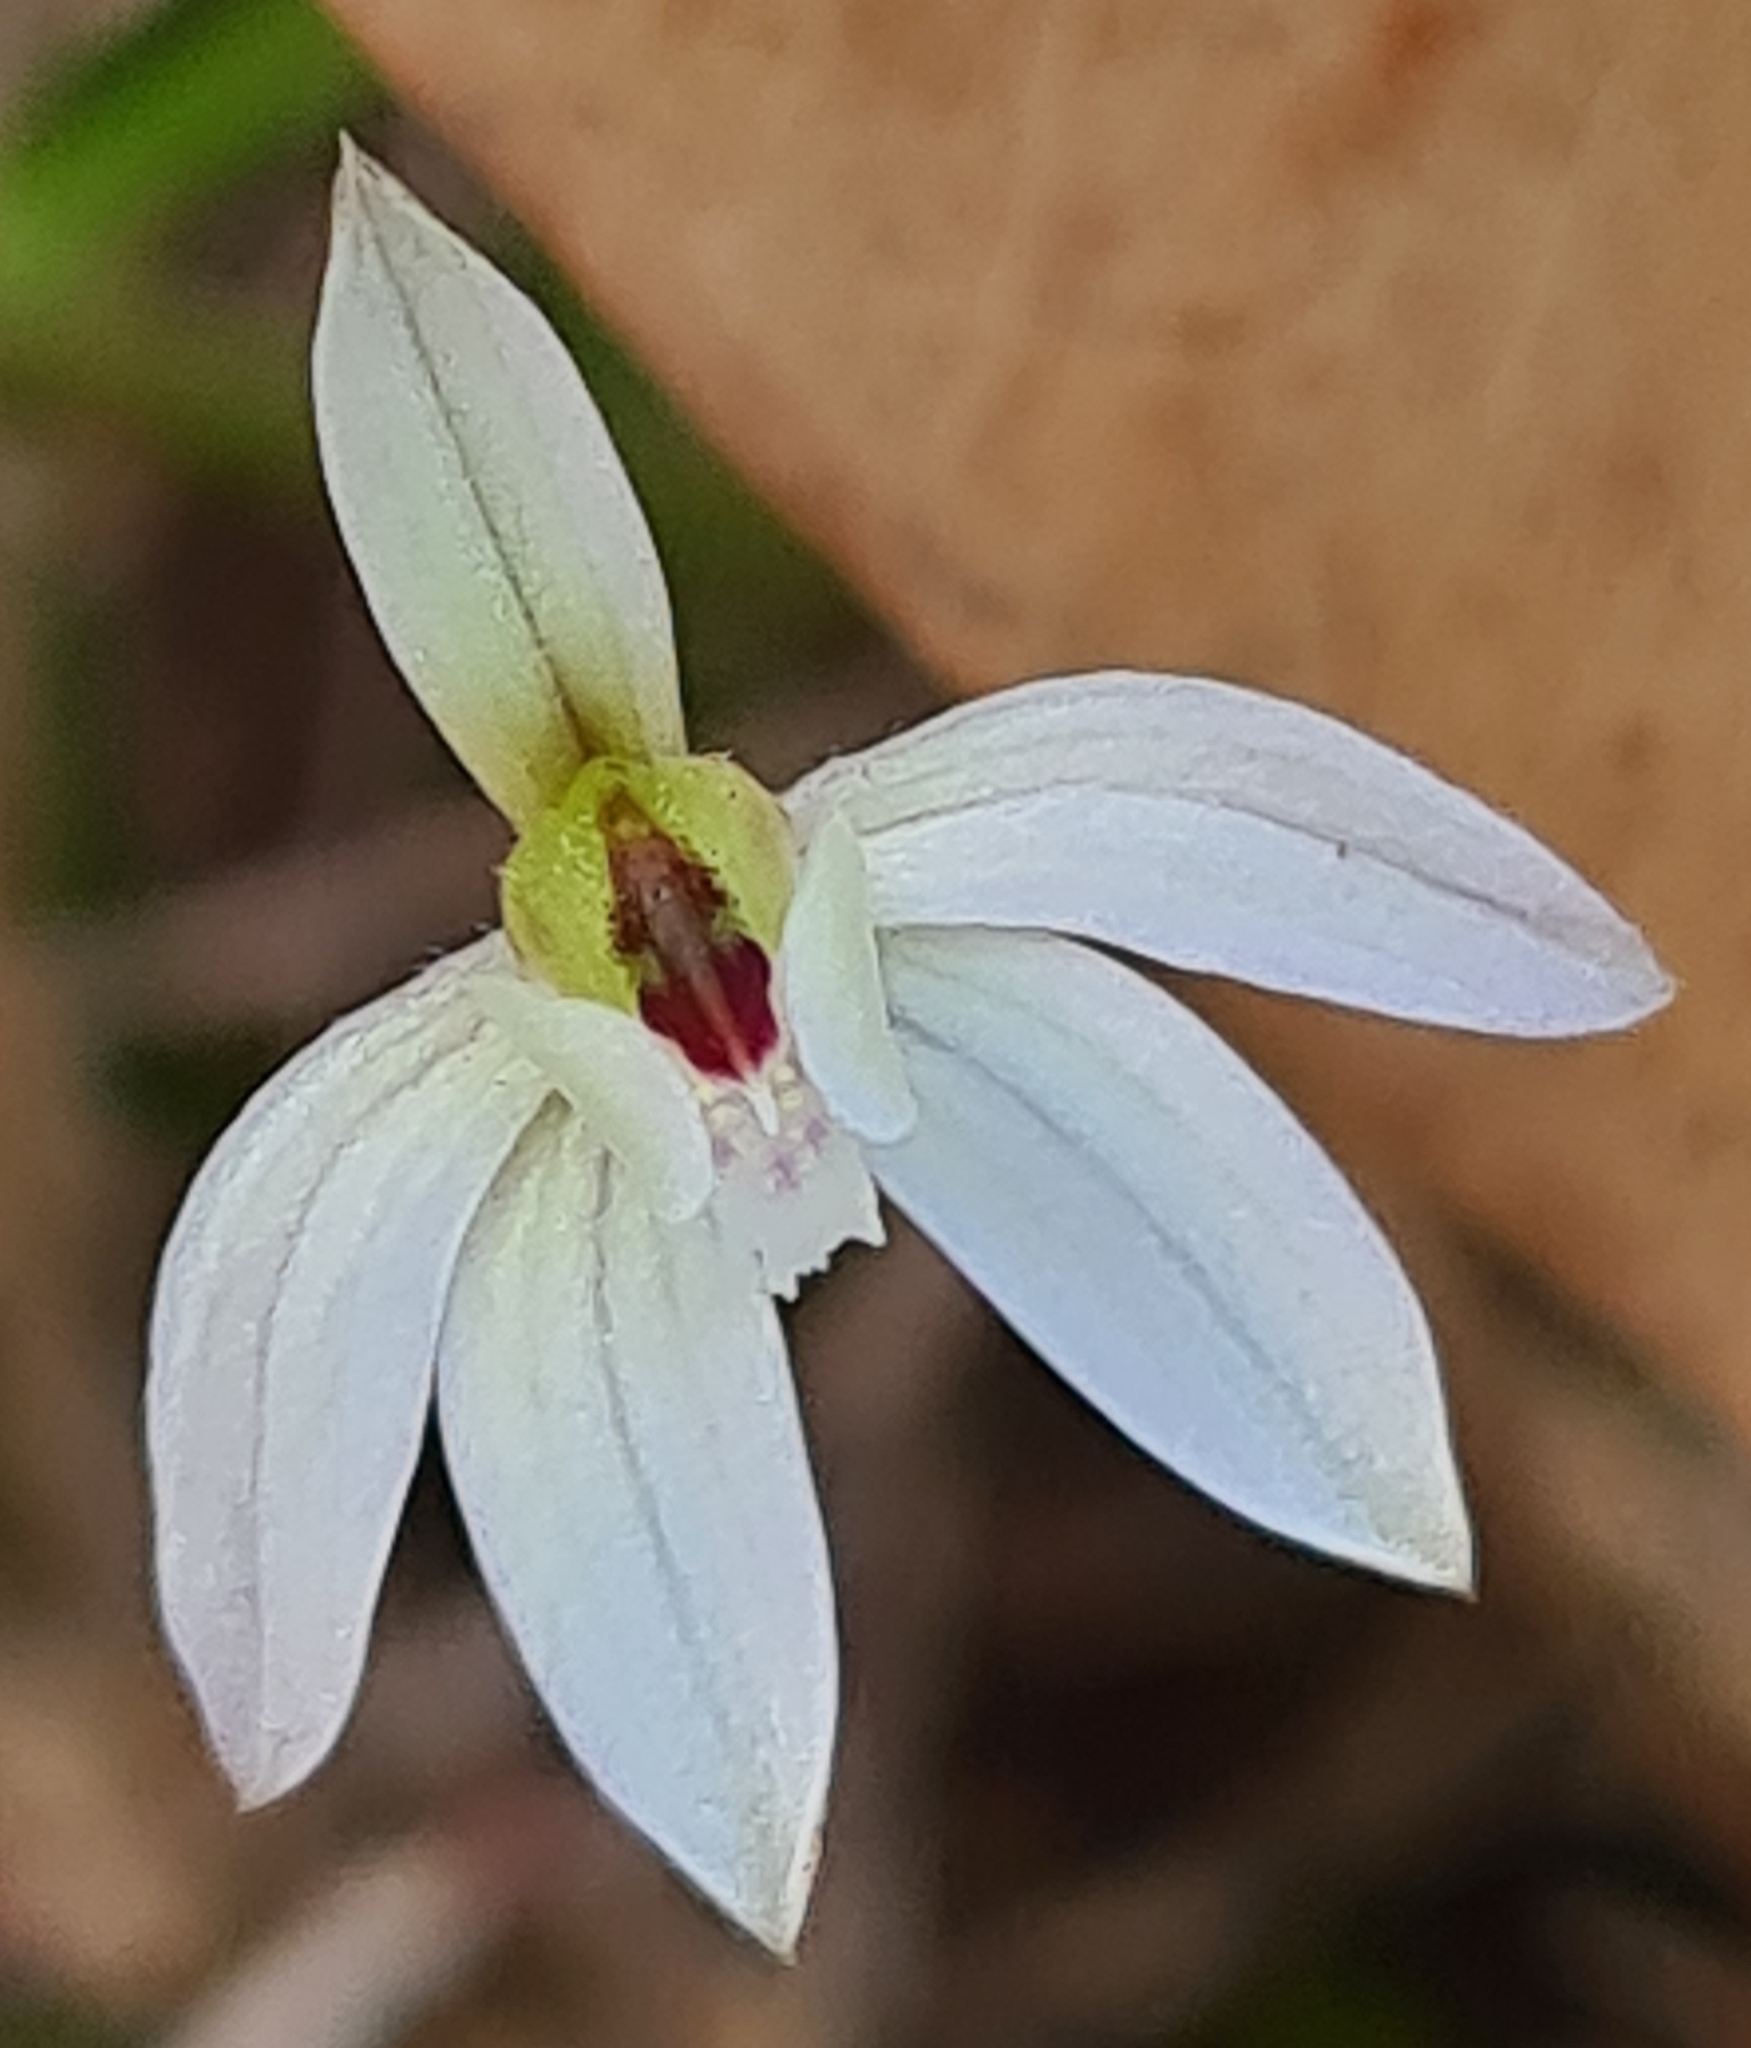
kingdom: Plantae
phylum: Tracheophyta
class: Liliopsida
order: Asparagales
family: Orchidaceae
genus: Caladenia
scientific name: Caladenia fuscata
